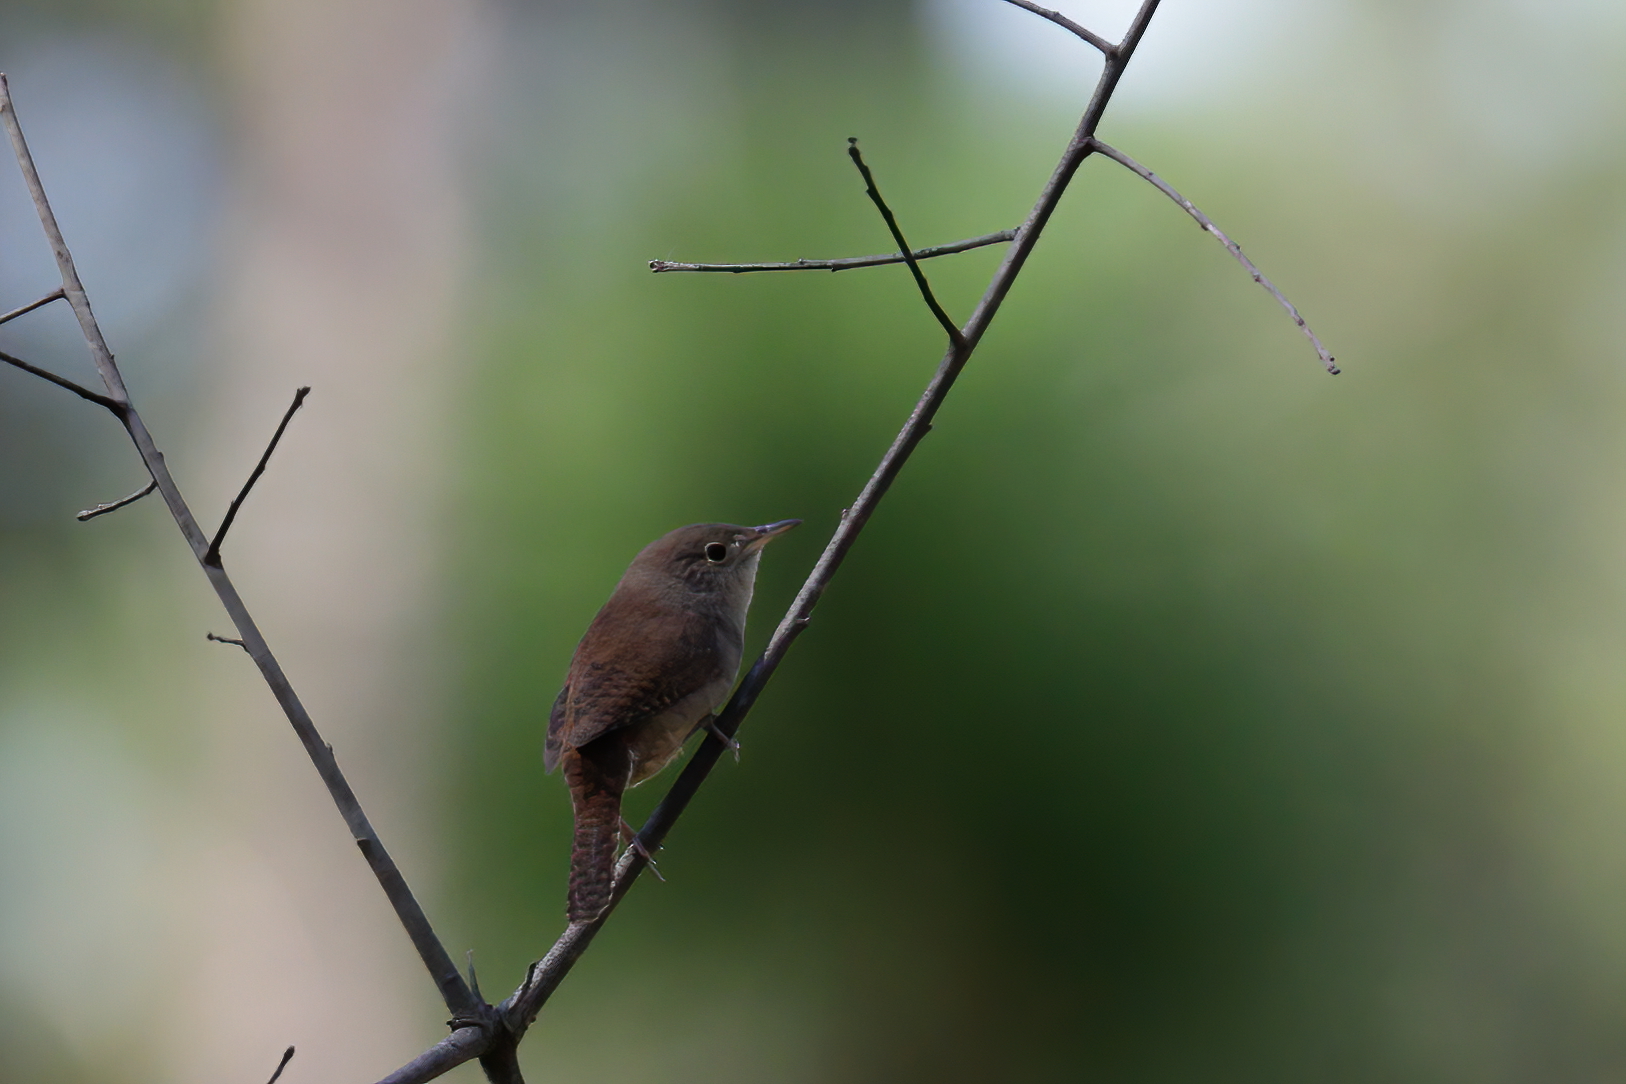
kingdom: Animalia
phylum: Chordata
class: Aves
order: Passeriformes
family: Troglodytidae
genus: Troglodytes
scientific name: Troglodytes aedon
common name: House wren
